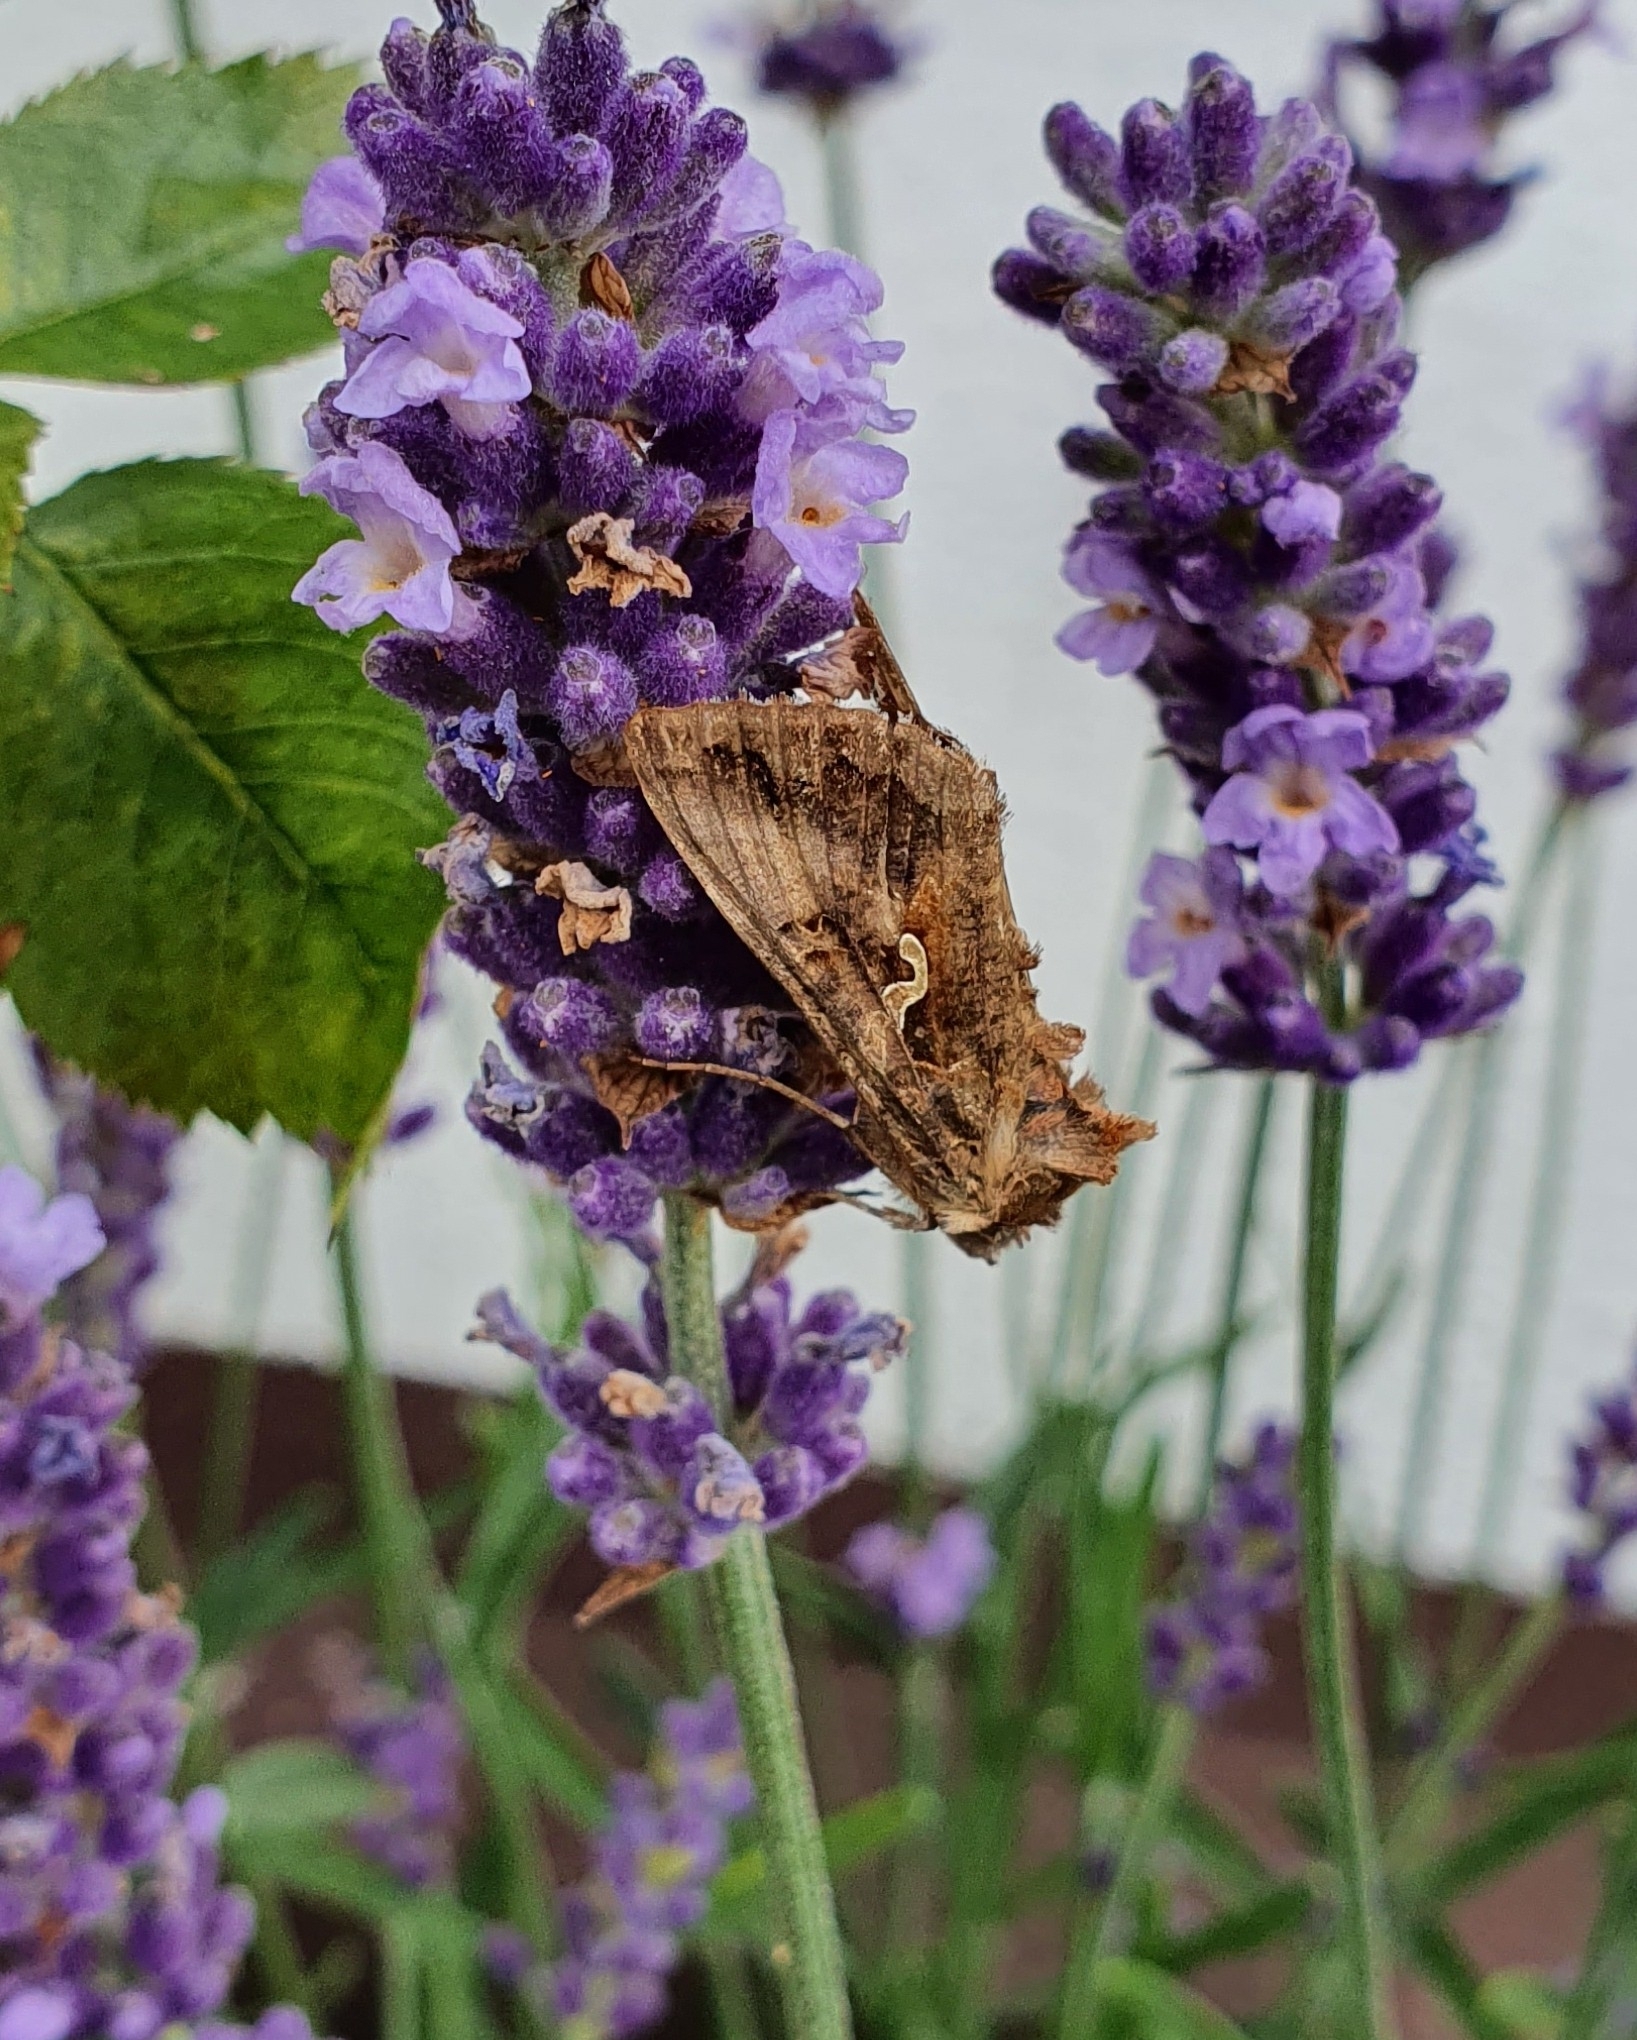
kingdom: Animalia
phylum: Arthropoda
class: Insecta
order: Lepidoptera
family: Noctuidae
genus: Autographa
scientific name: Autographa gamma
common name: Silver y
